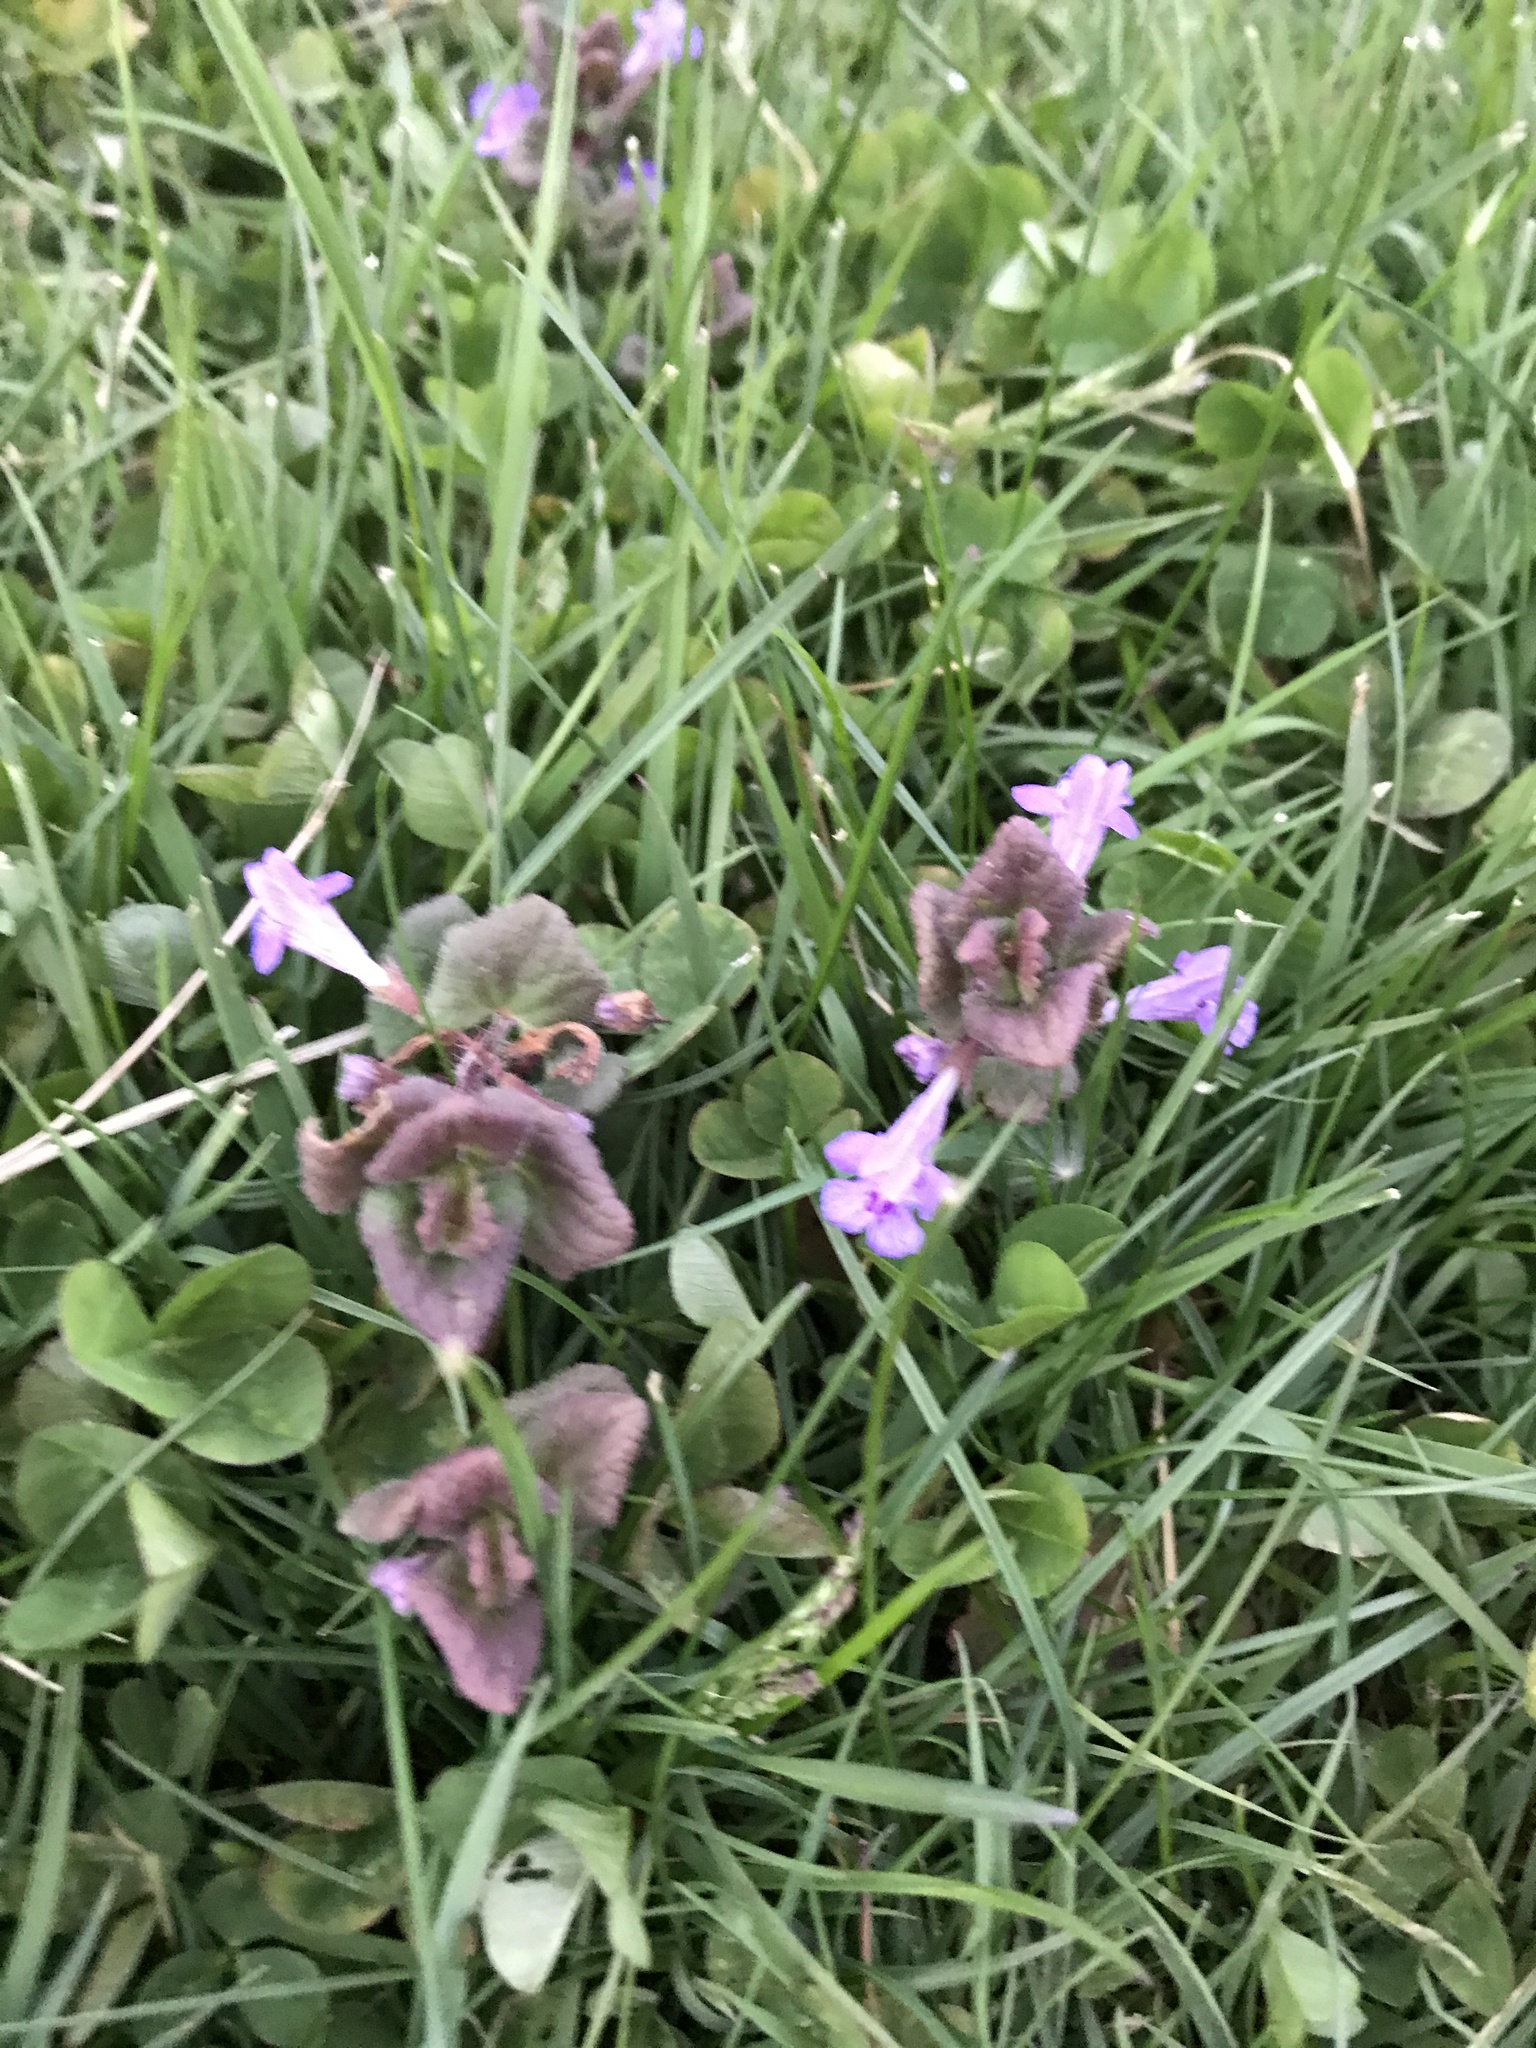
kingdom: Plantae
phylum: Tracheophyta
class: Magnoliopsida
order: Lamiales
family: Lamiaceae
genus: Glechoma
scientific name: Glechoma hederacea
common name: Ground ivy
